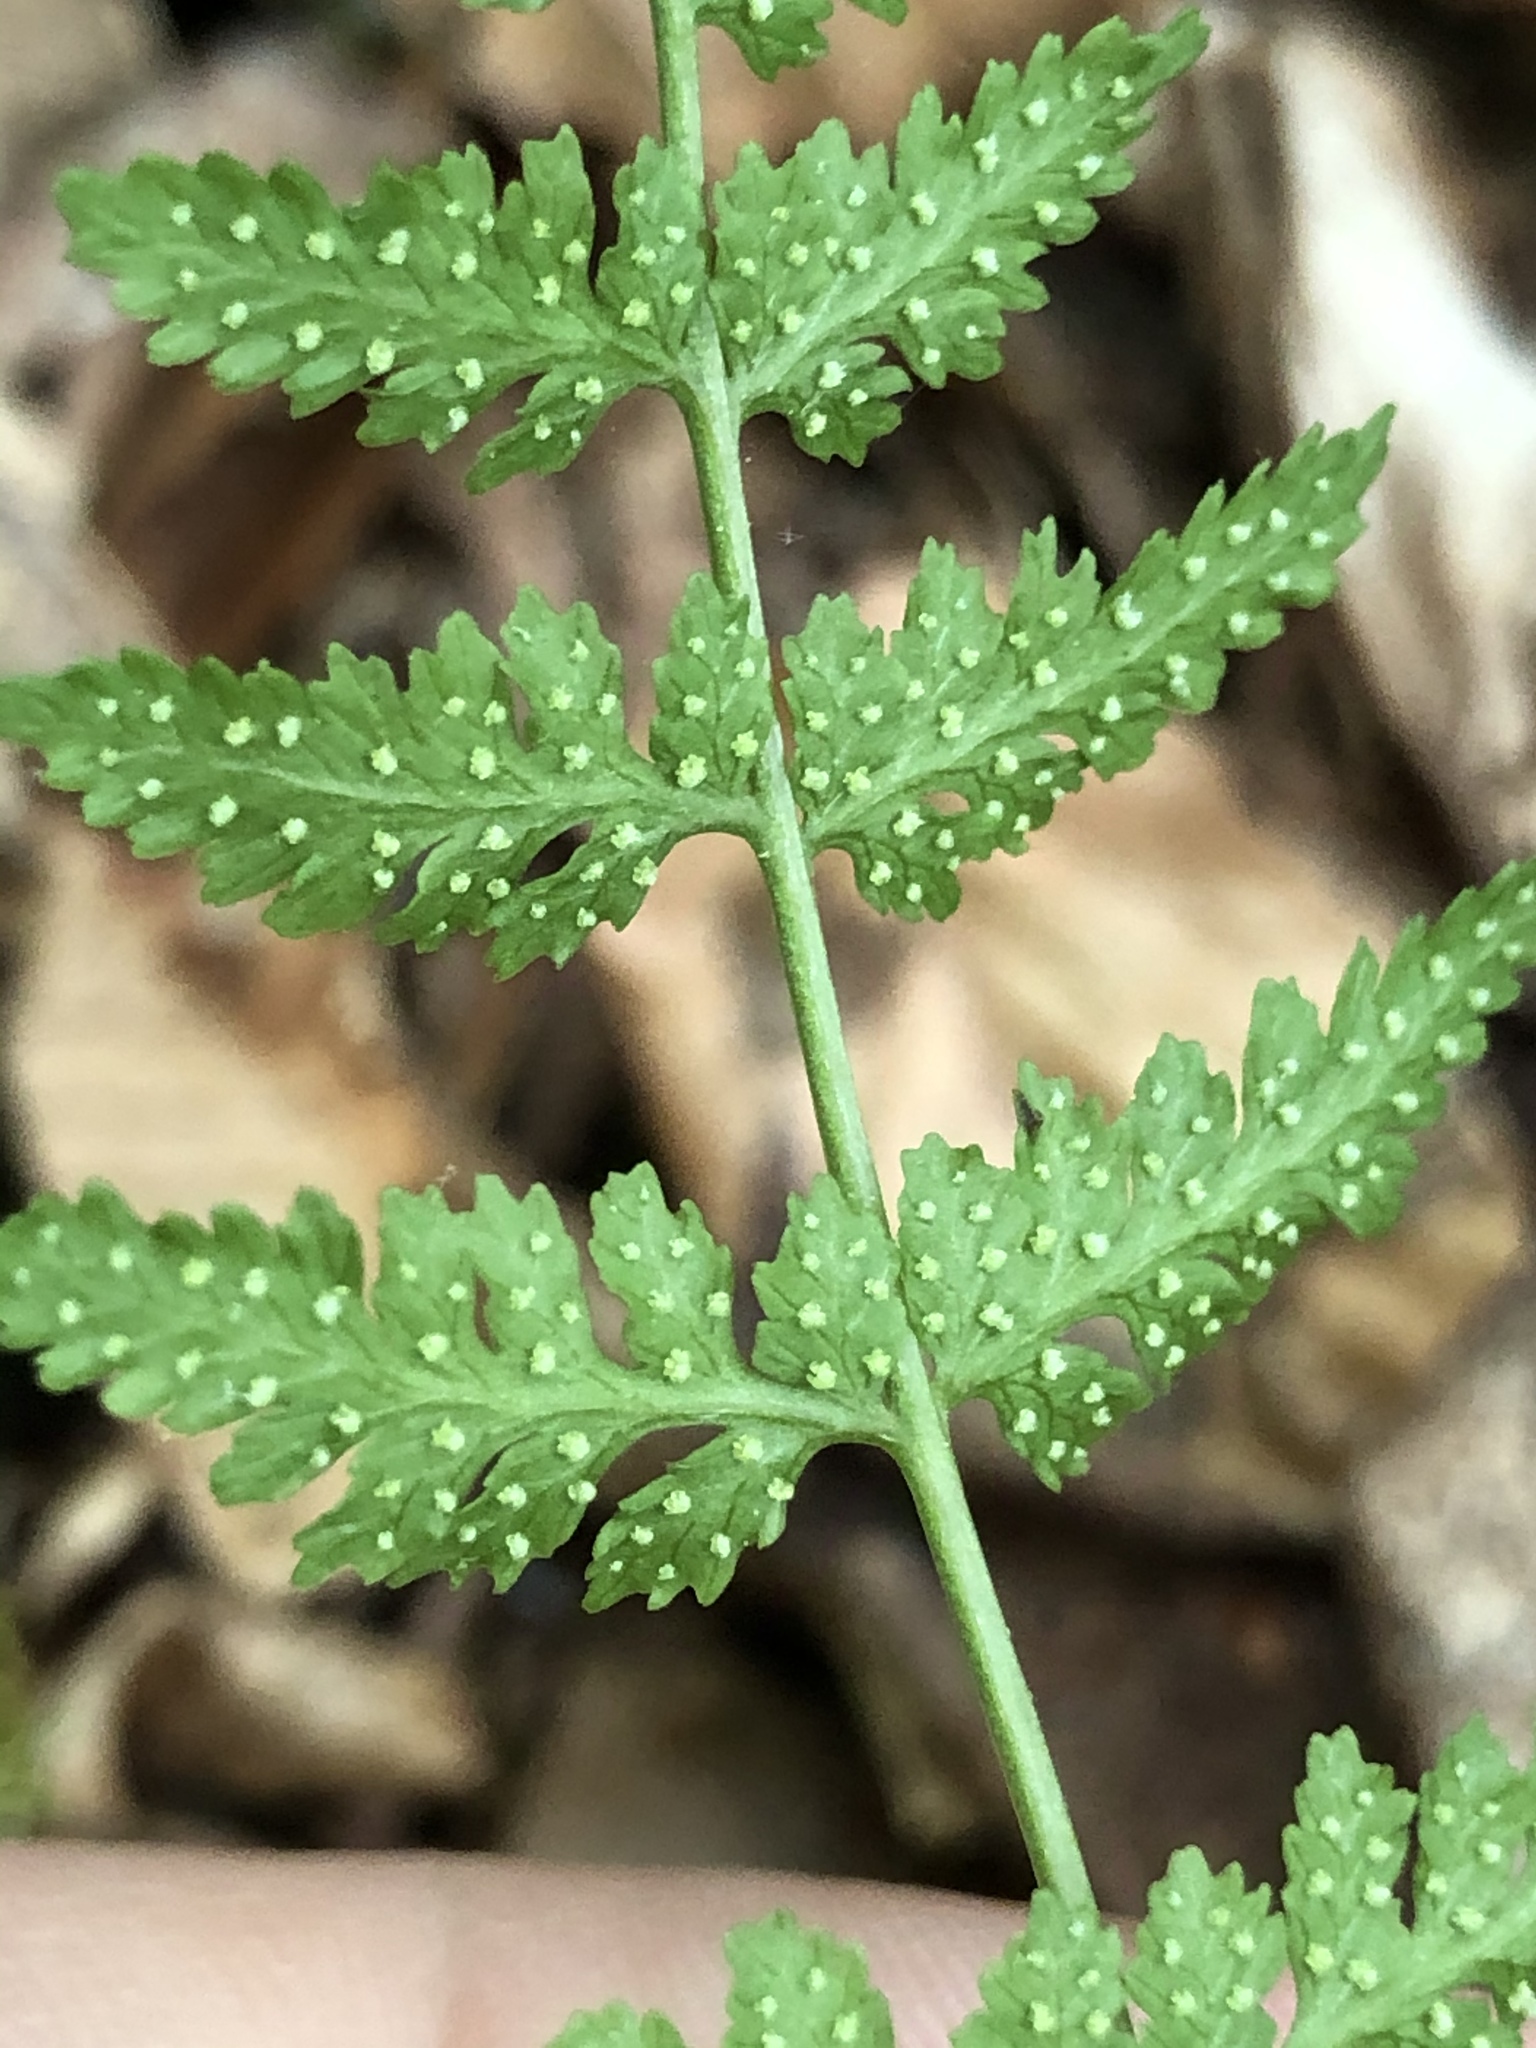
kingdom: Plantae
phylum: Tracheophyta
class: Polypodiopsida
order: Polypodiales
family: Woodsiaceae
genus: Physematium
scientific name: Physematium obtusum
